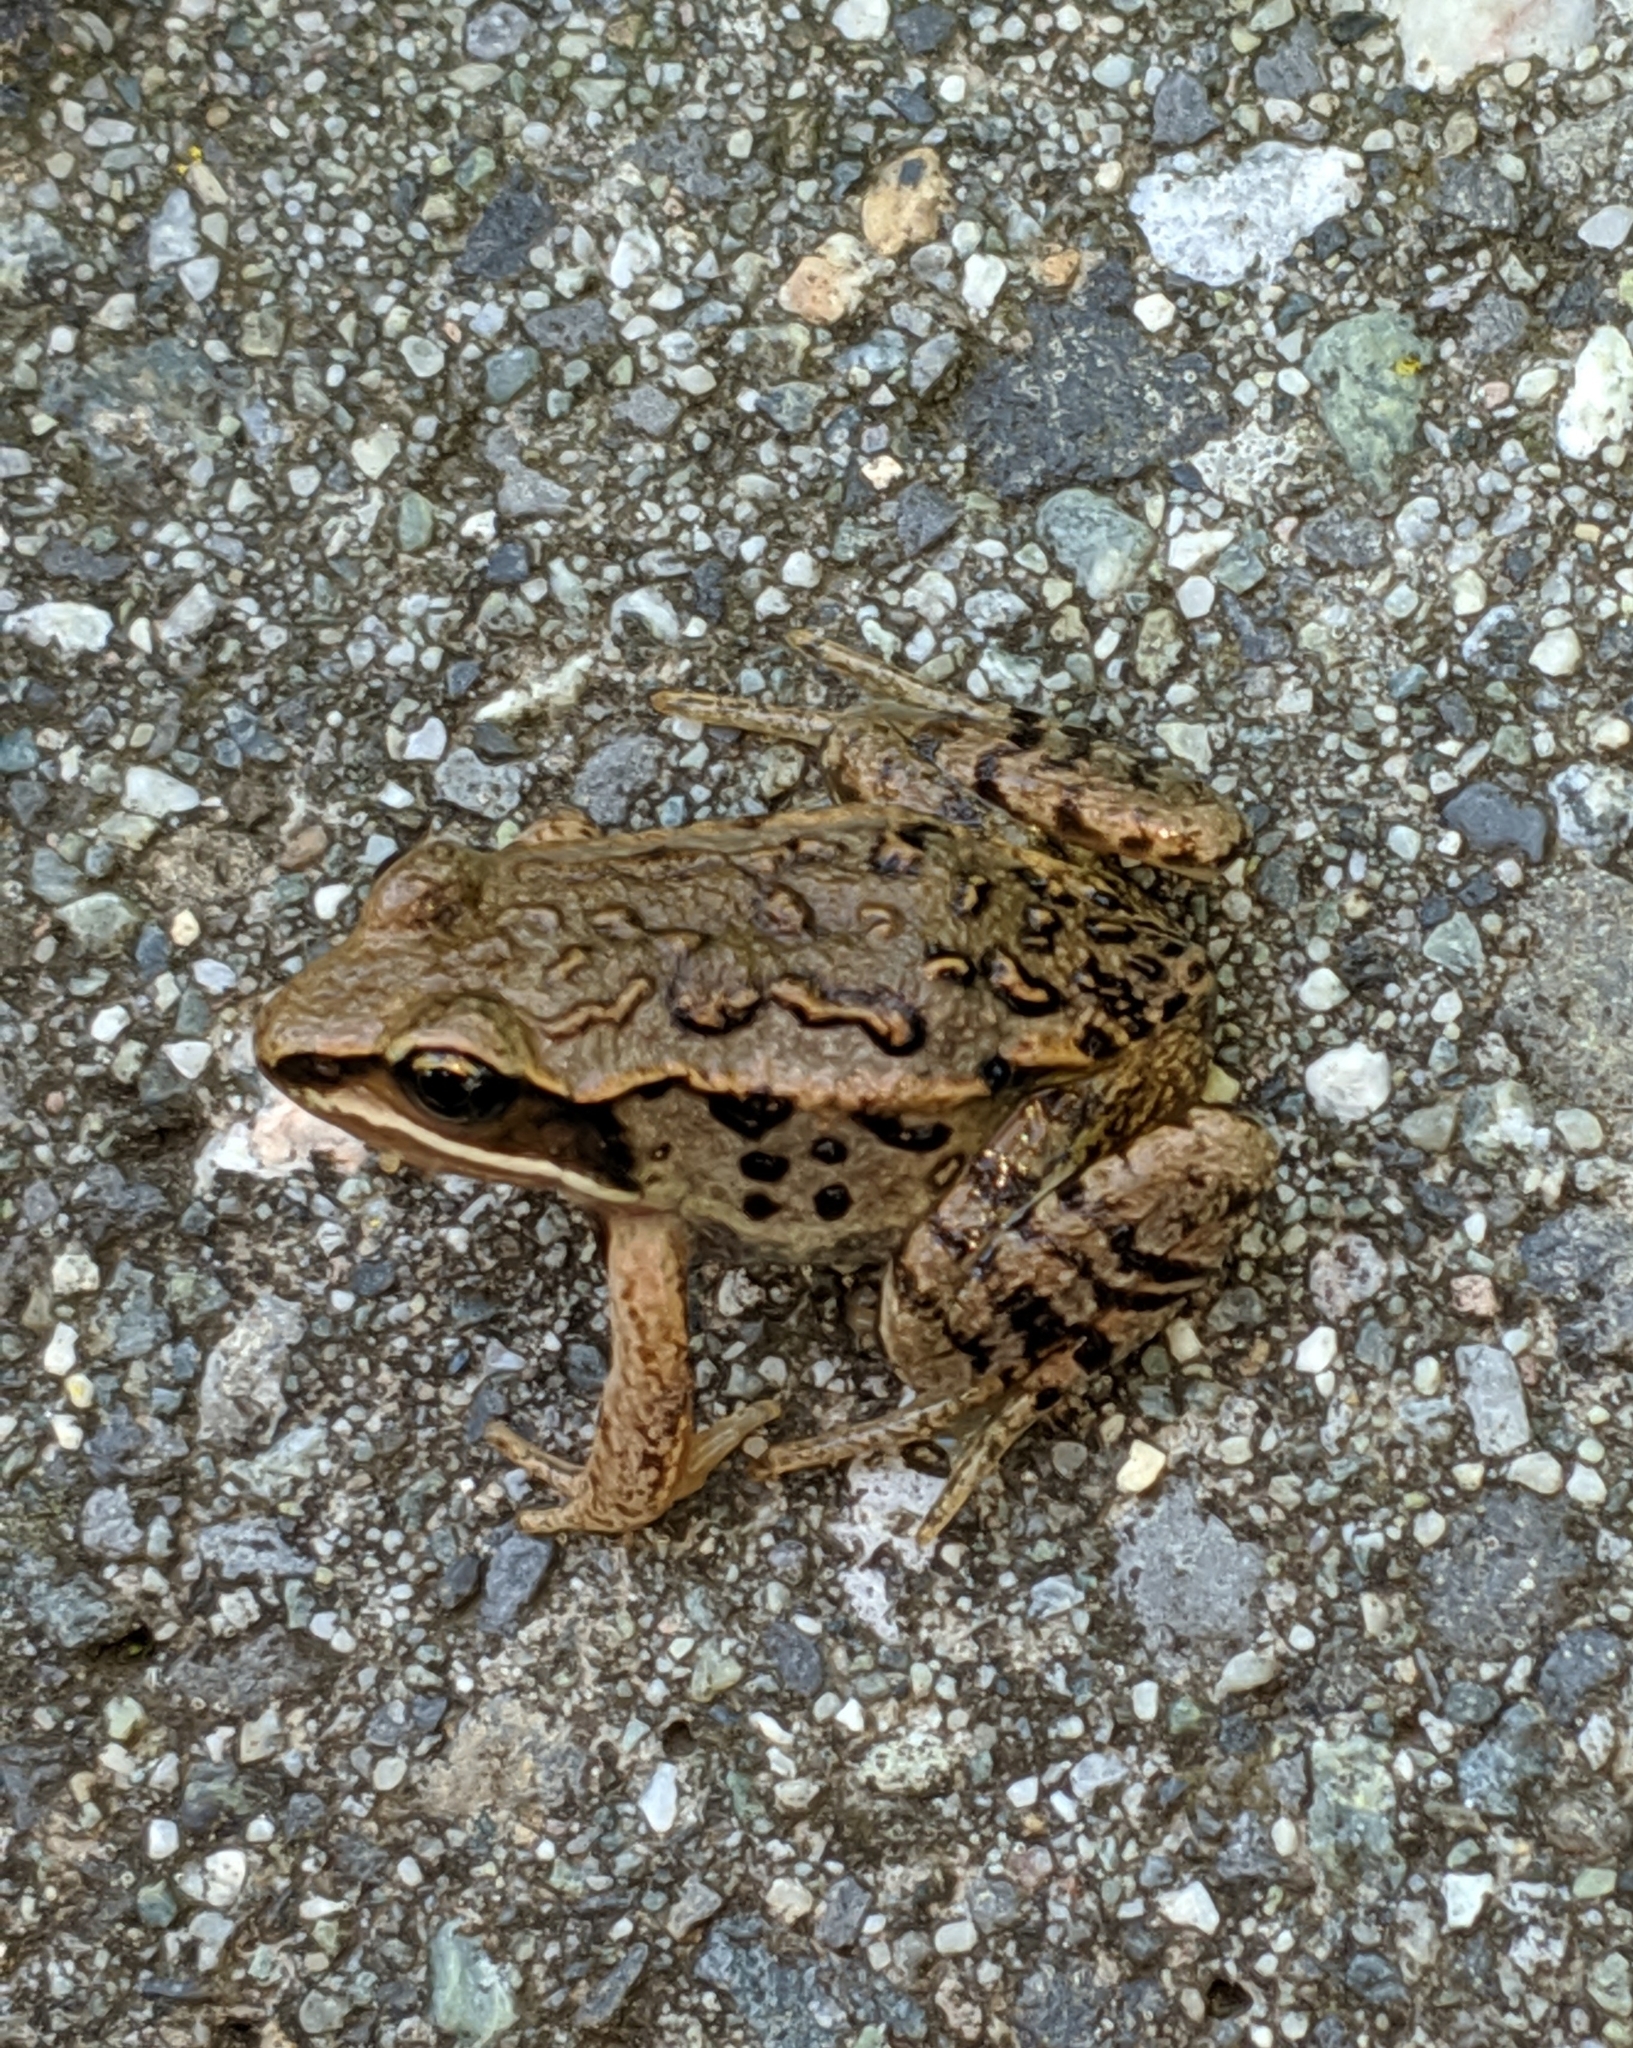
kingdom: Animalia
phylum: Chordata
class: Amphibia
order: Anura
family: Ranidae
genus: Lithobates
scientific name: Lithobates sylvaticus
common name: Wood frog
